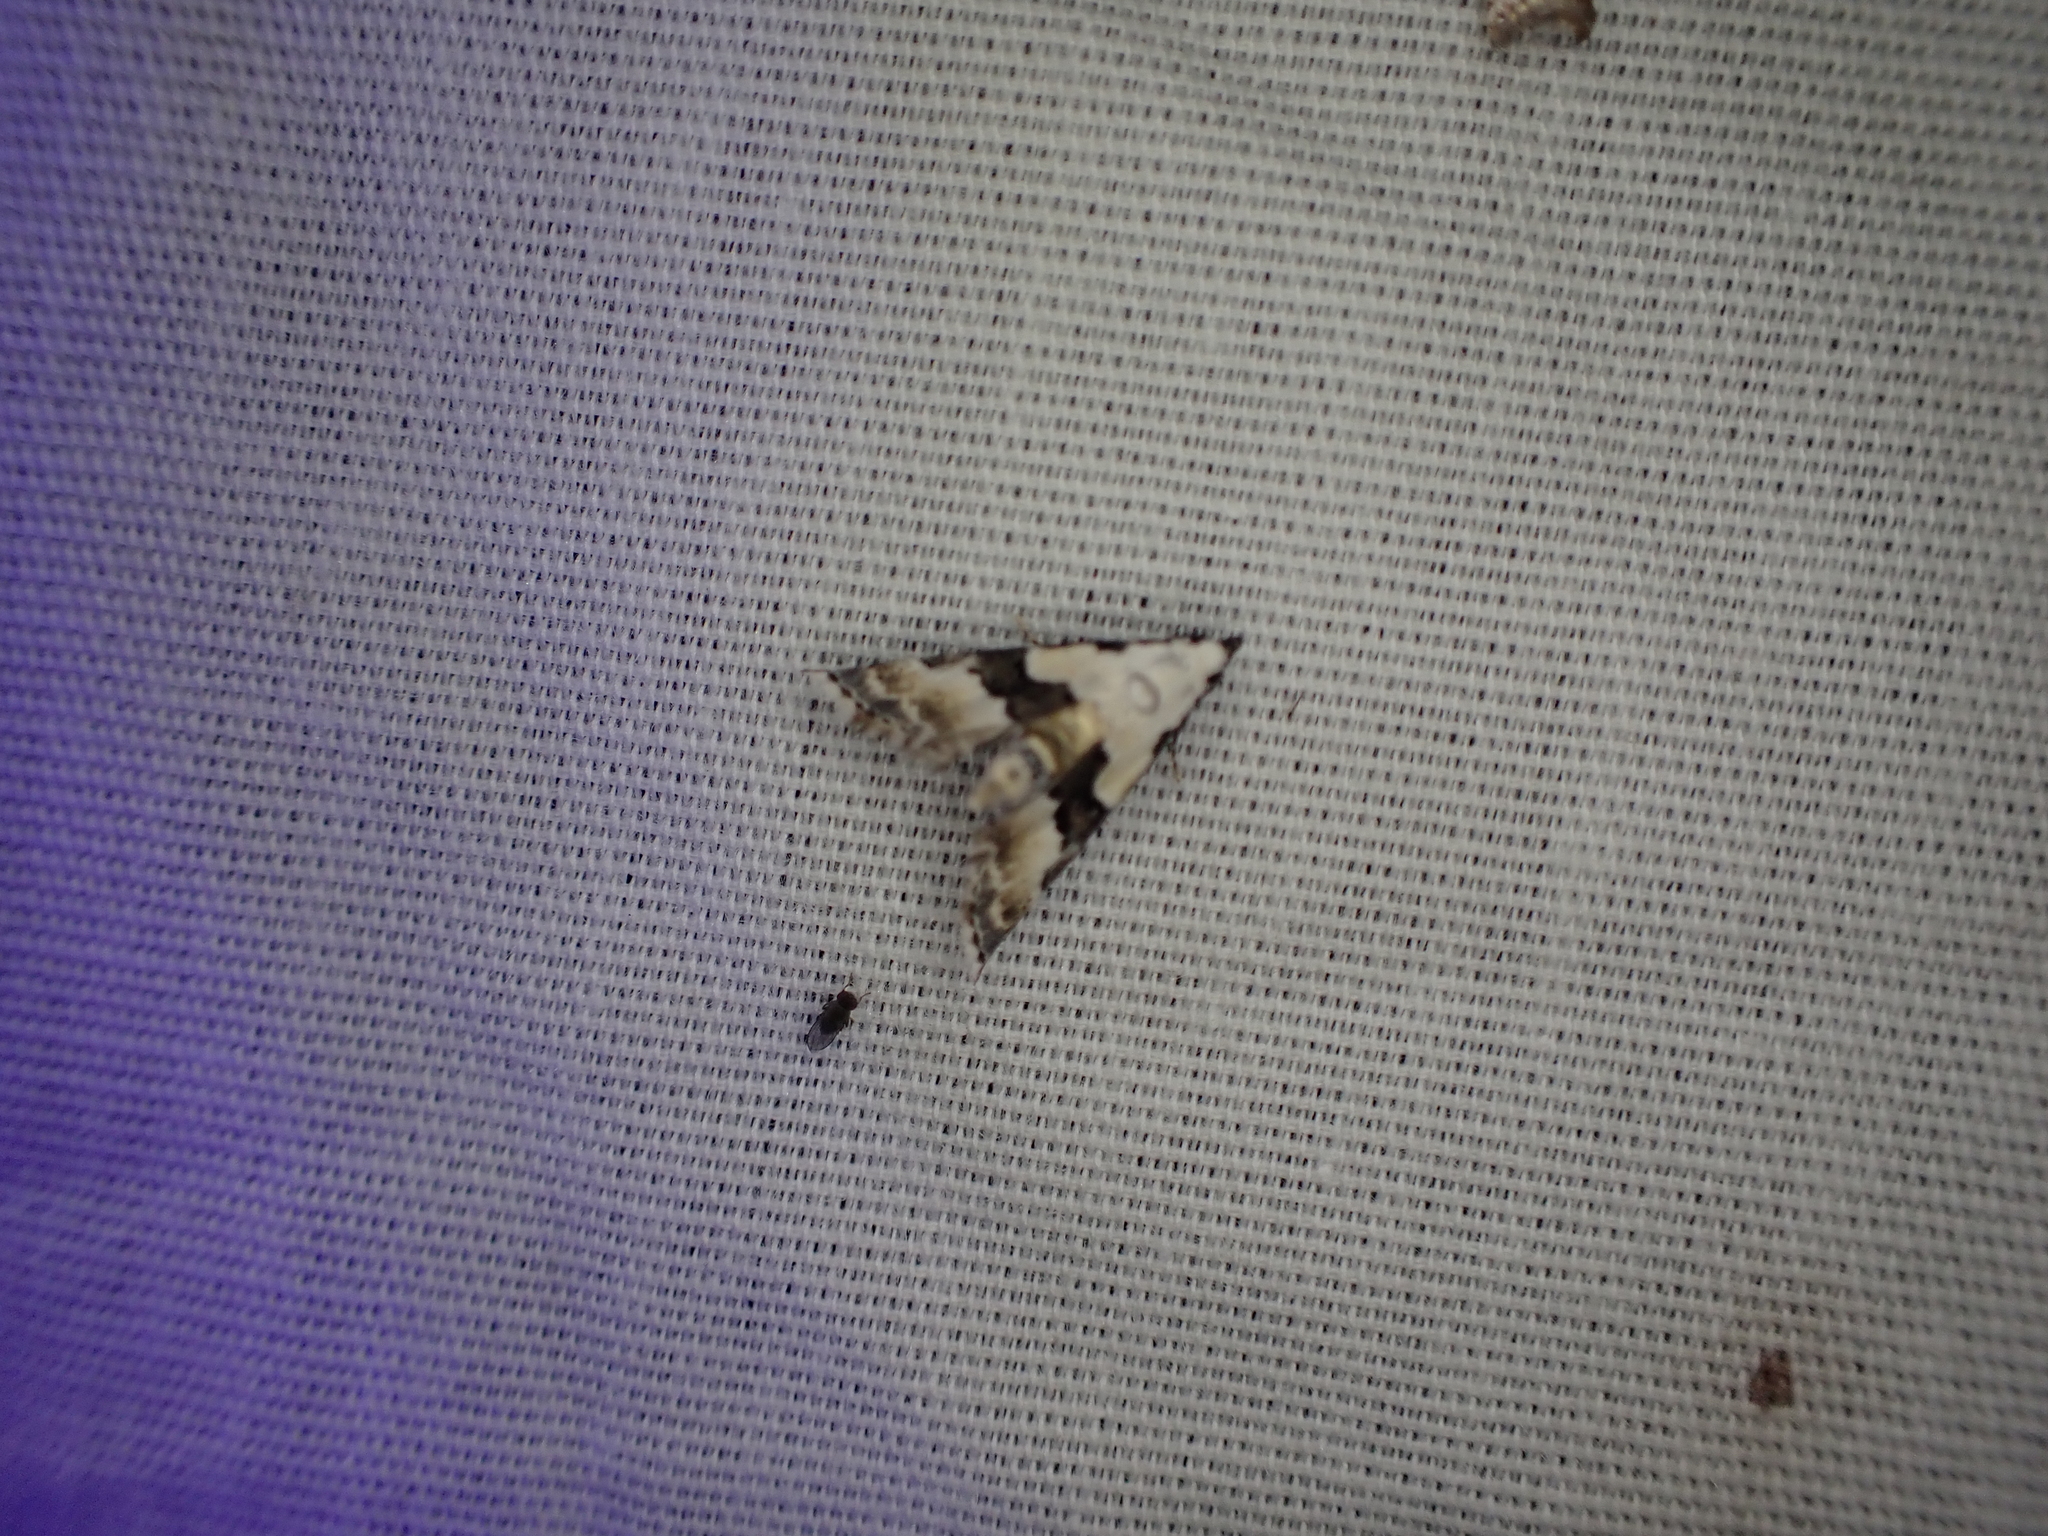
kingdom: Animalia
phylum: Arthropoda
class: Insecta
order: Lepidoptera
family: Noctuidae
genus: Nigetia
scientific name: Nigetia formosalis
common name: Thin-winged owlet
